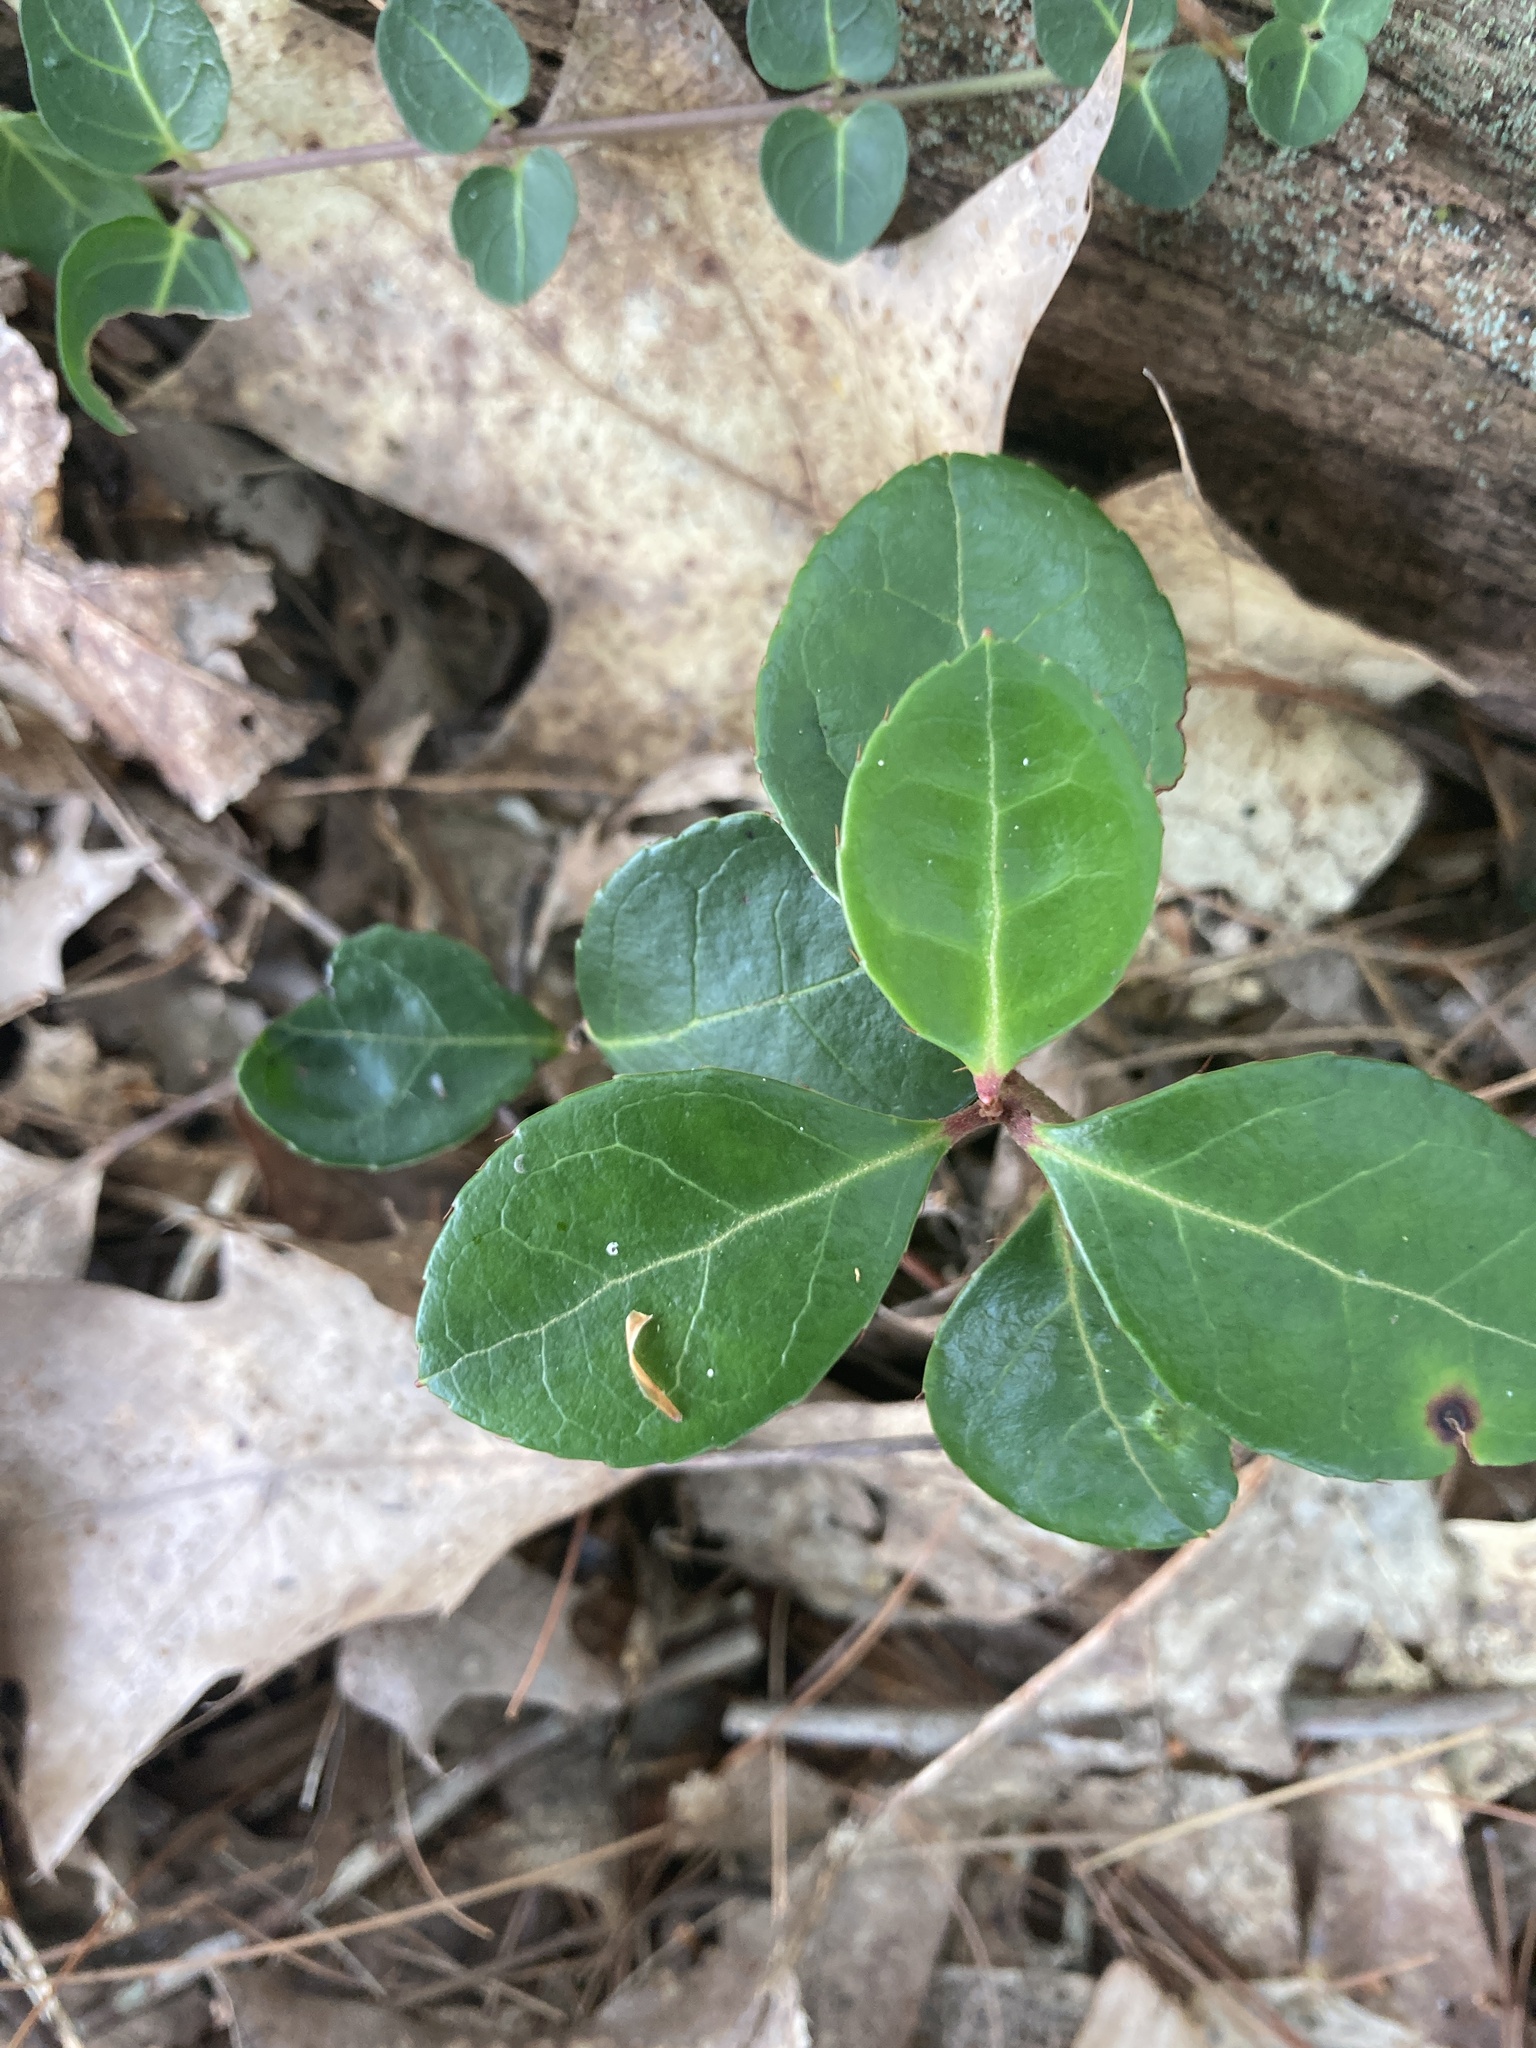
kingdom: Plantae
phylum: Tracheophyta
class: Magnoliopsida
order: Ericales
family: Ericaceae
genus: Gaultheria
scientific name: Gaultheria procumbens
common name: Checkerberry
